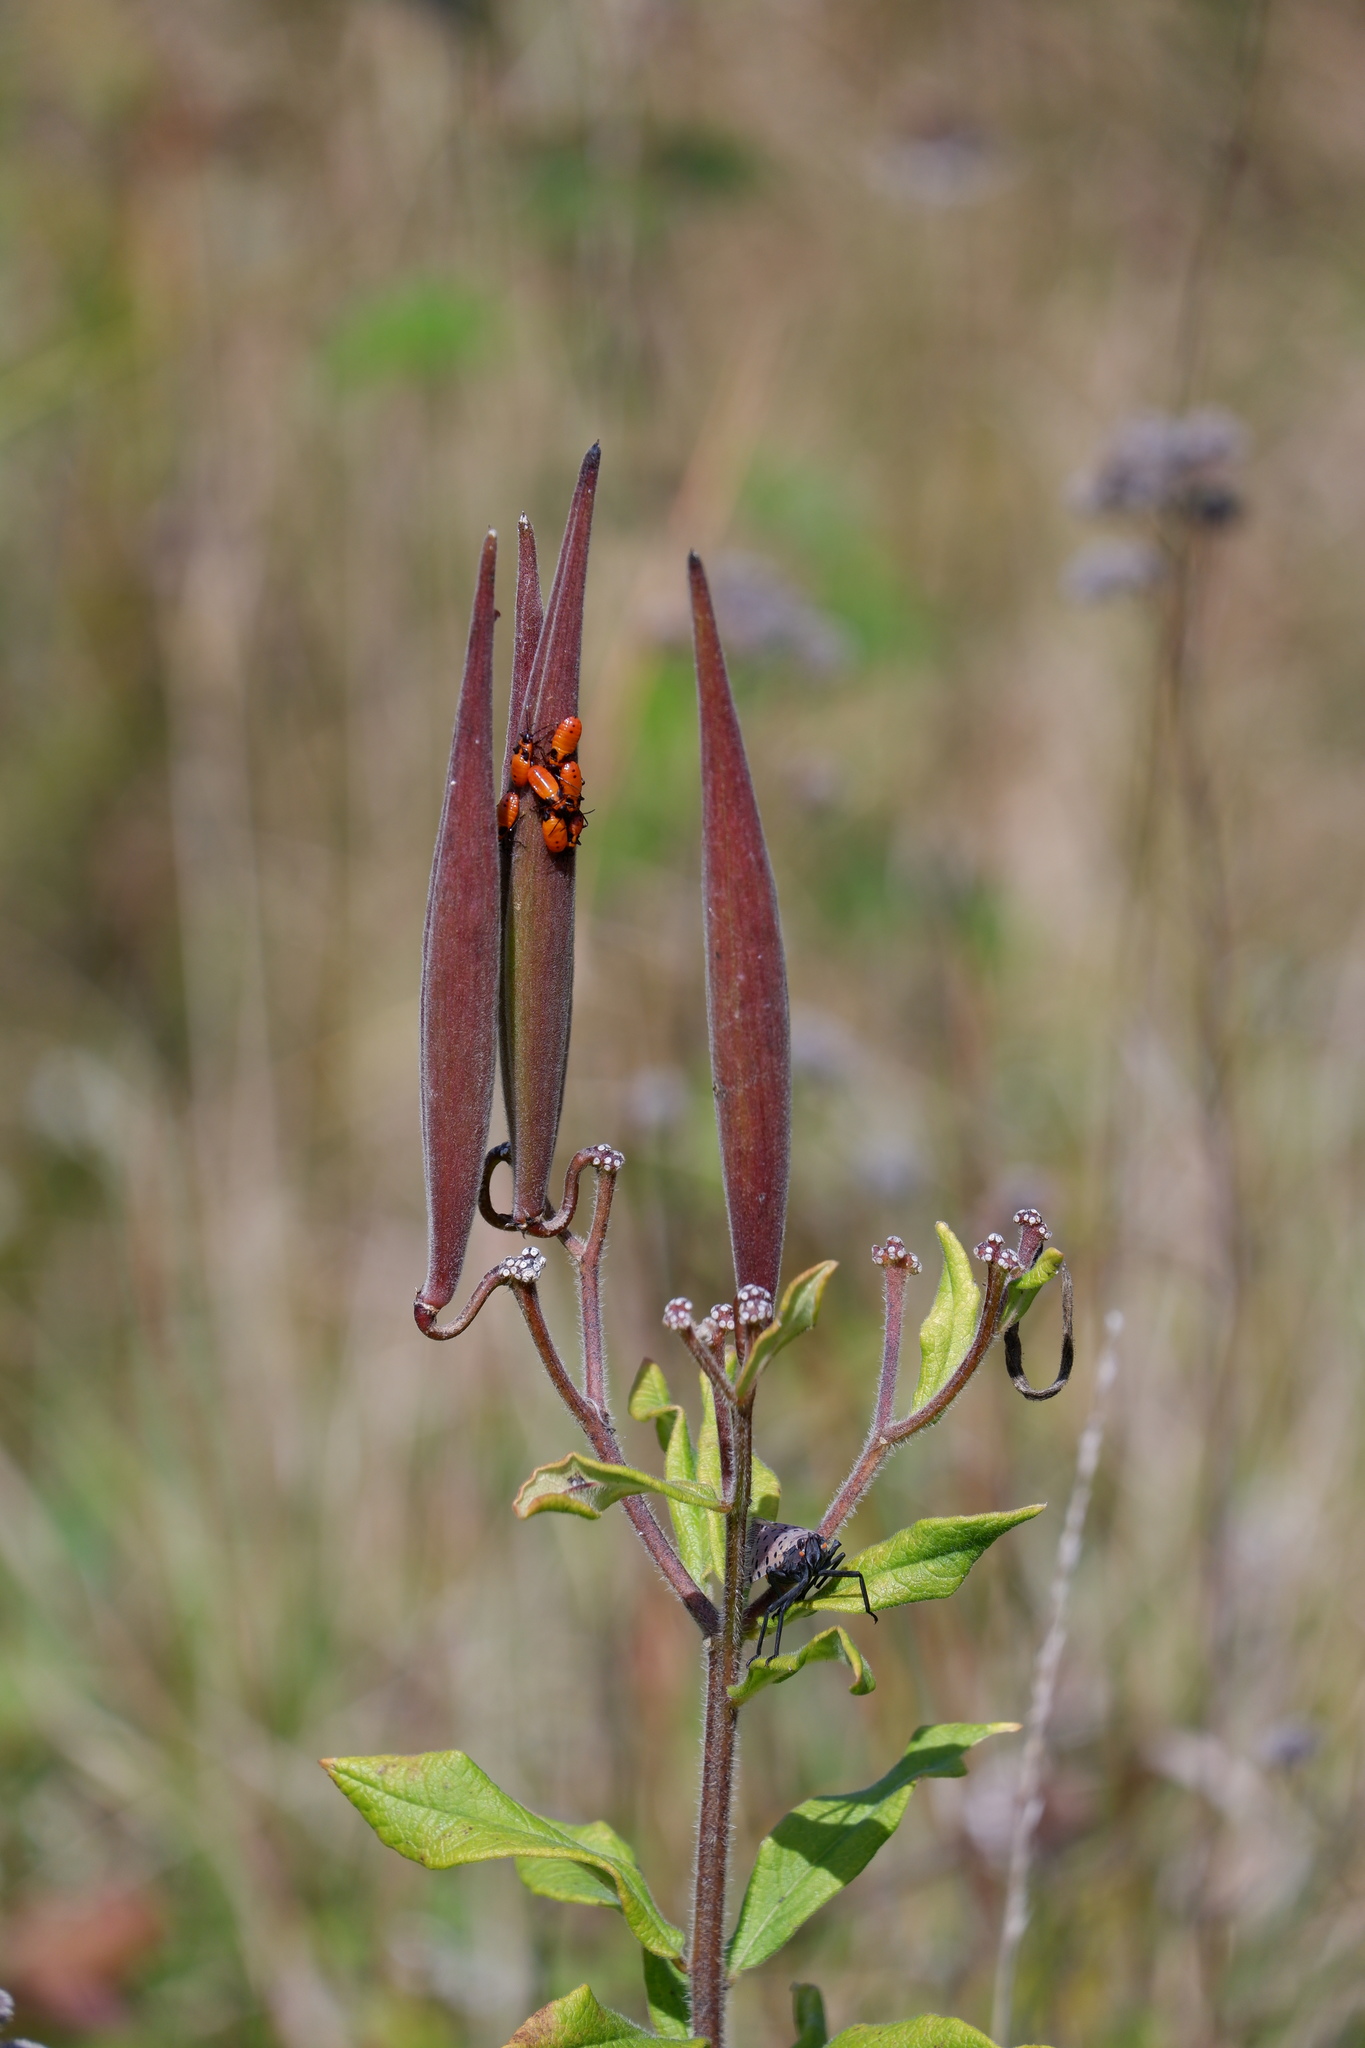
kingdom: Animalia
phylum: Arthropoda
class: Insecta
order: Hemiptera
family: Fulgoridae
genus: Lycorma
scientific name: Lycorma delicatula
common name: Spotted lanternfly
